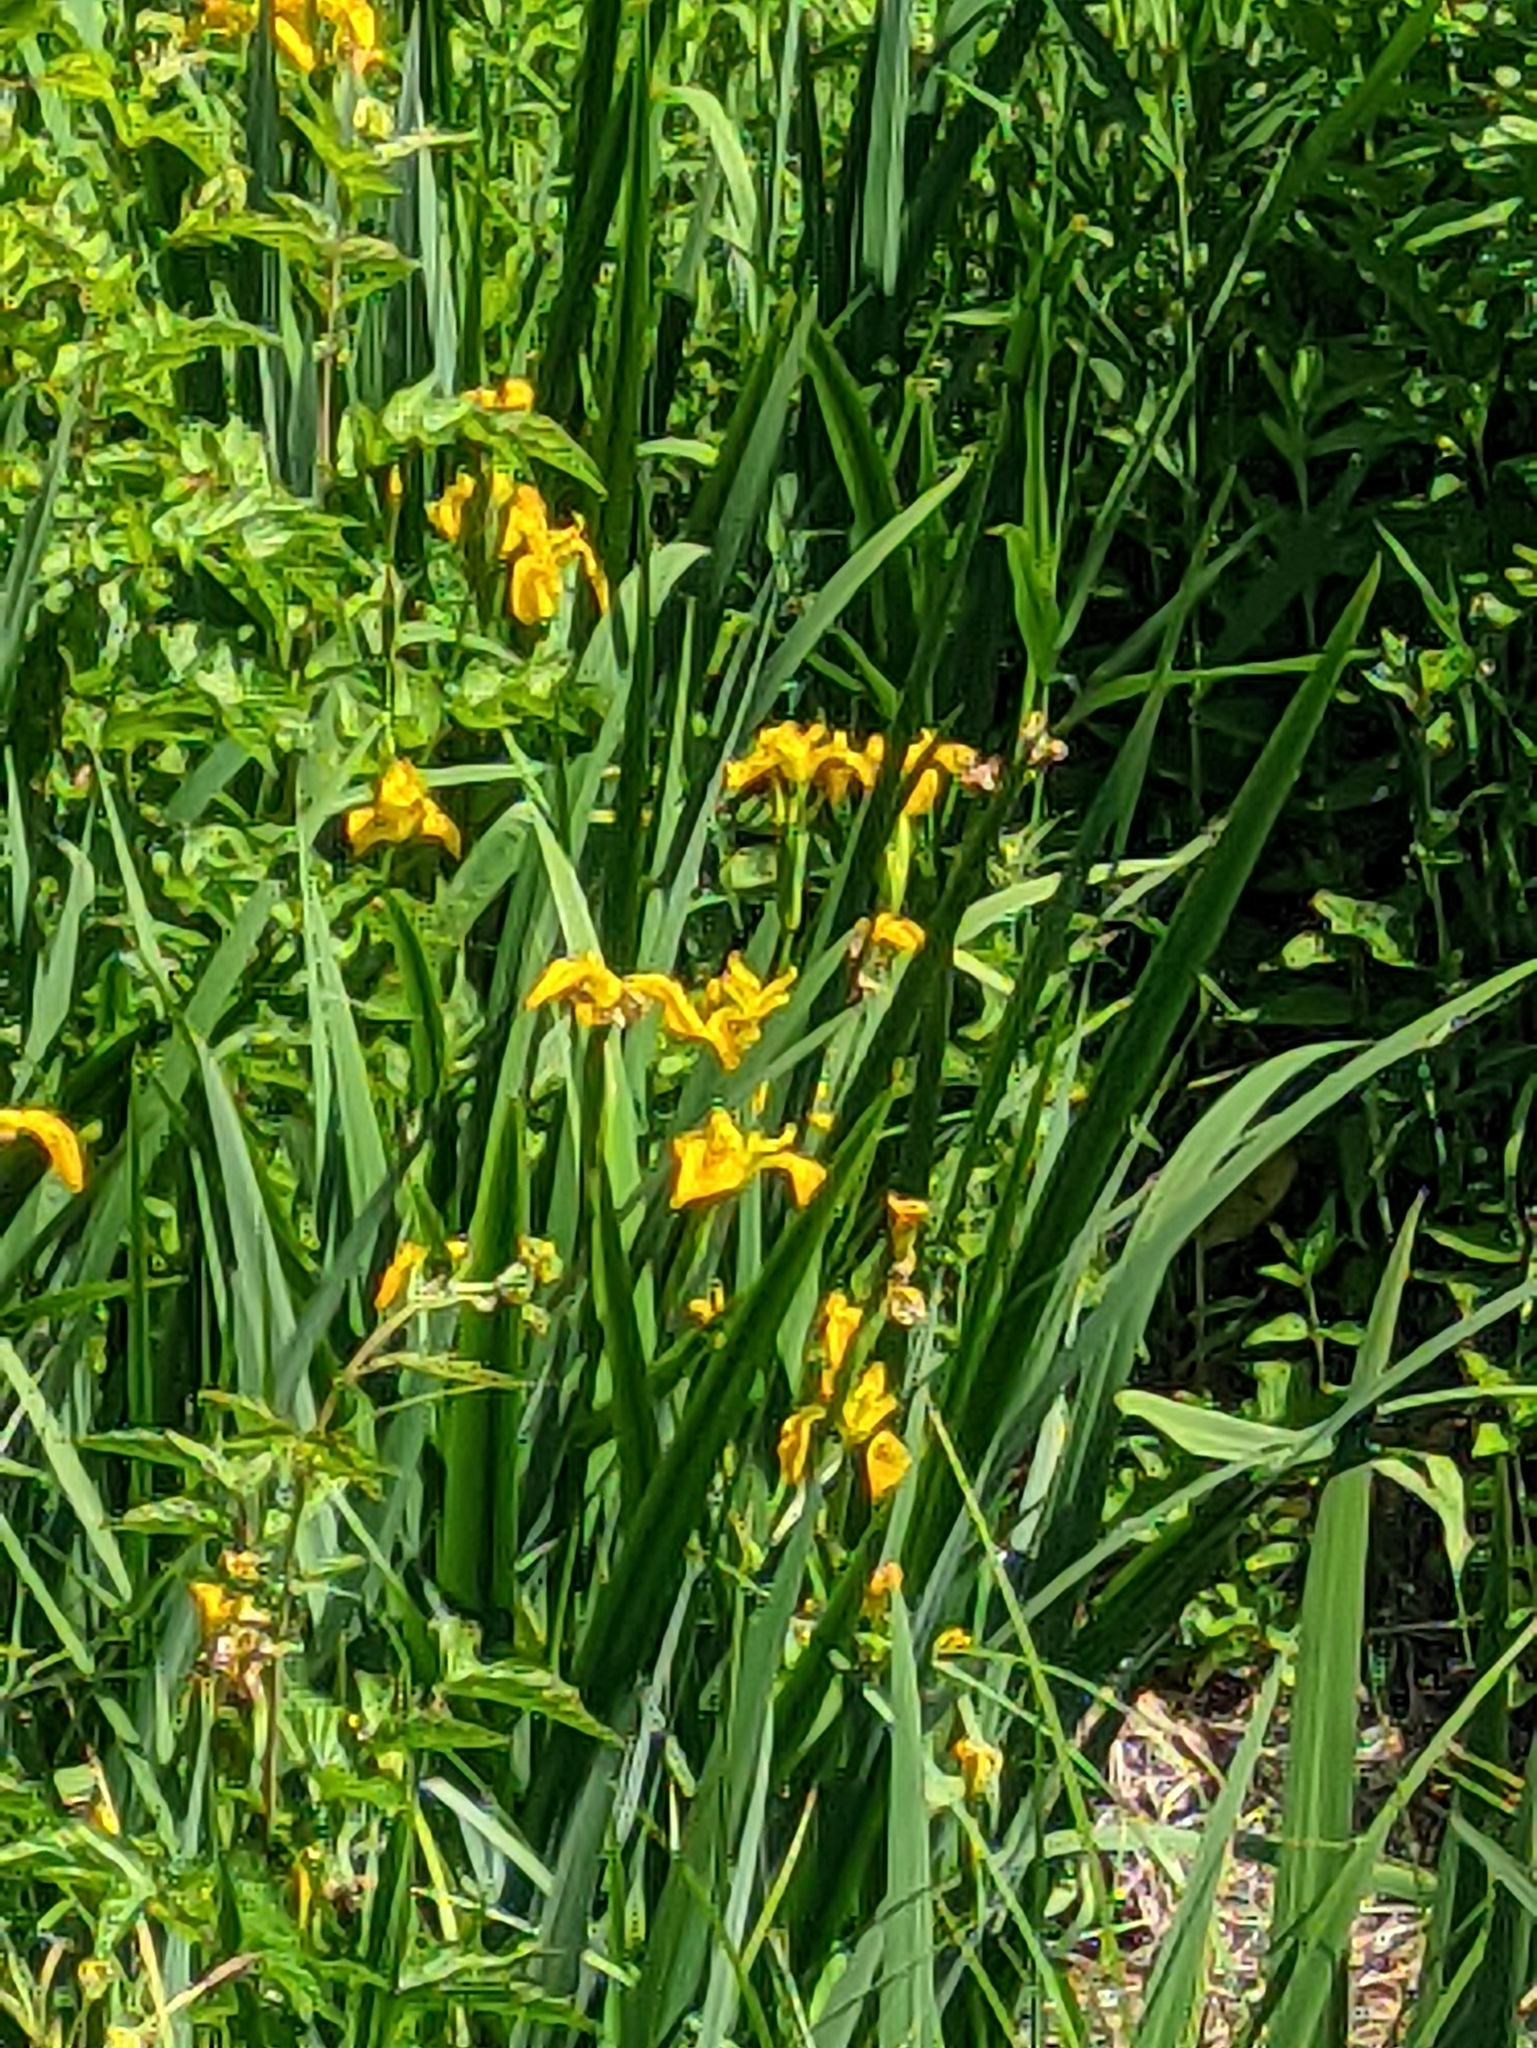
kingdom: Plantae
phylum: Tracheophyta
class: Liliopsida
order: Asparagales
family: Iridaceae
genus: Iris
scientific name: Iris pseudacorus
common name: Yellow flag
